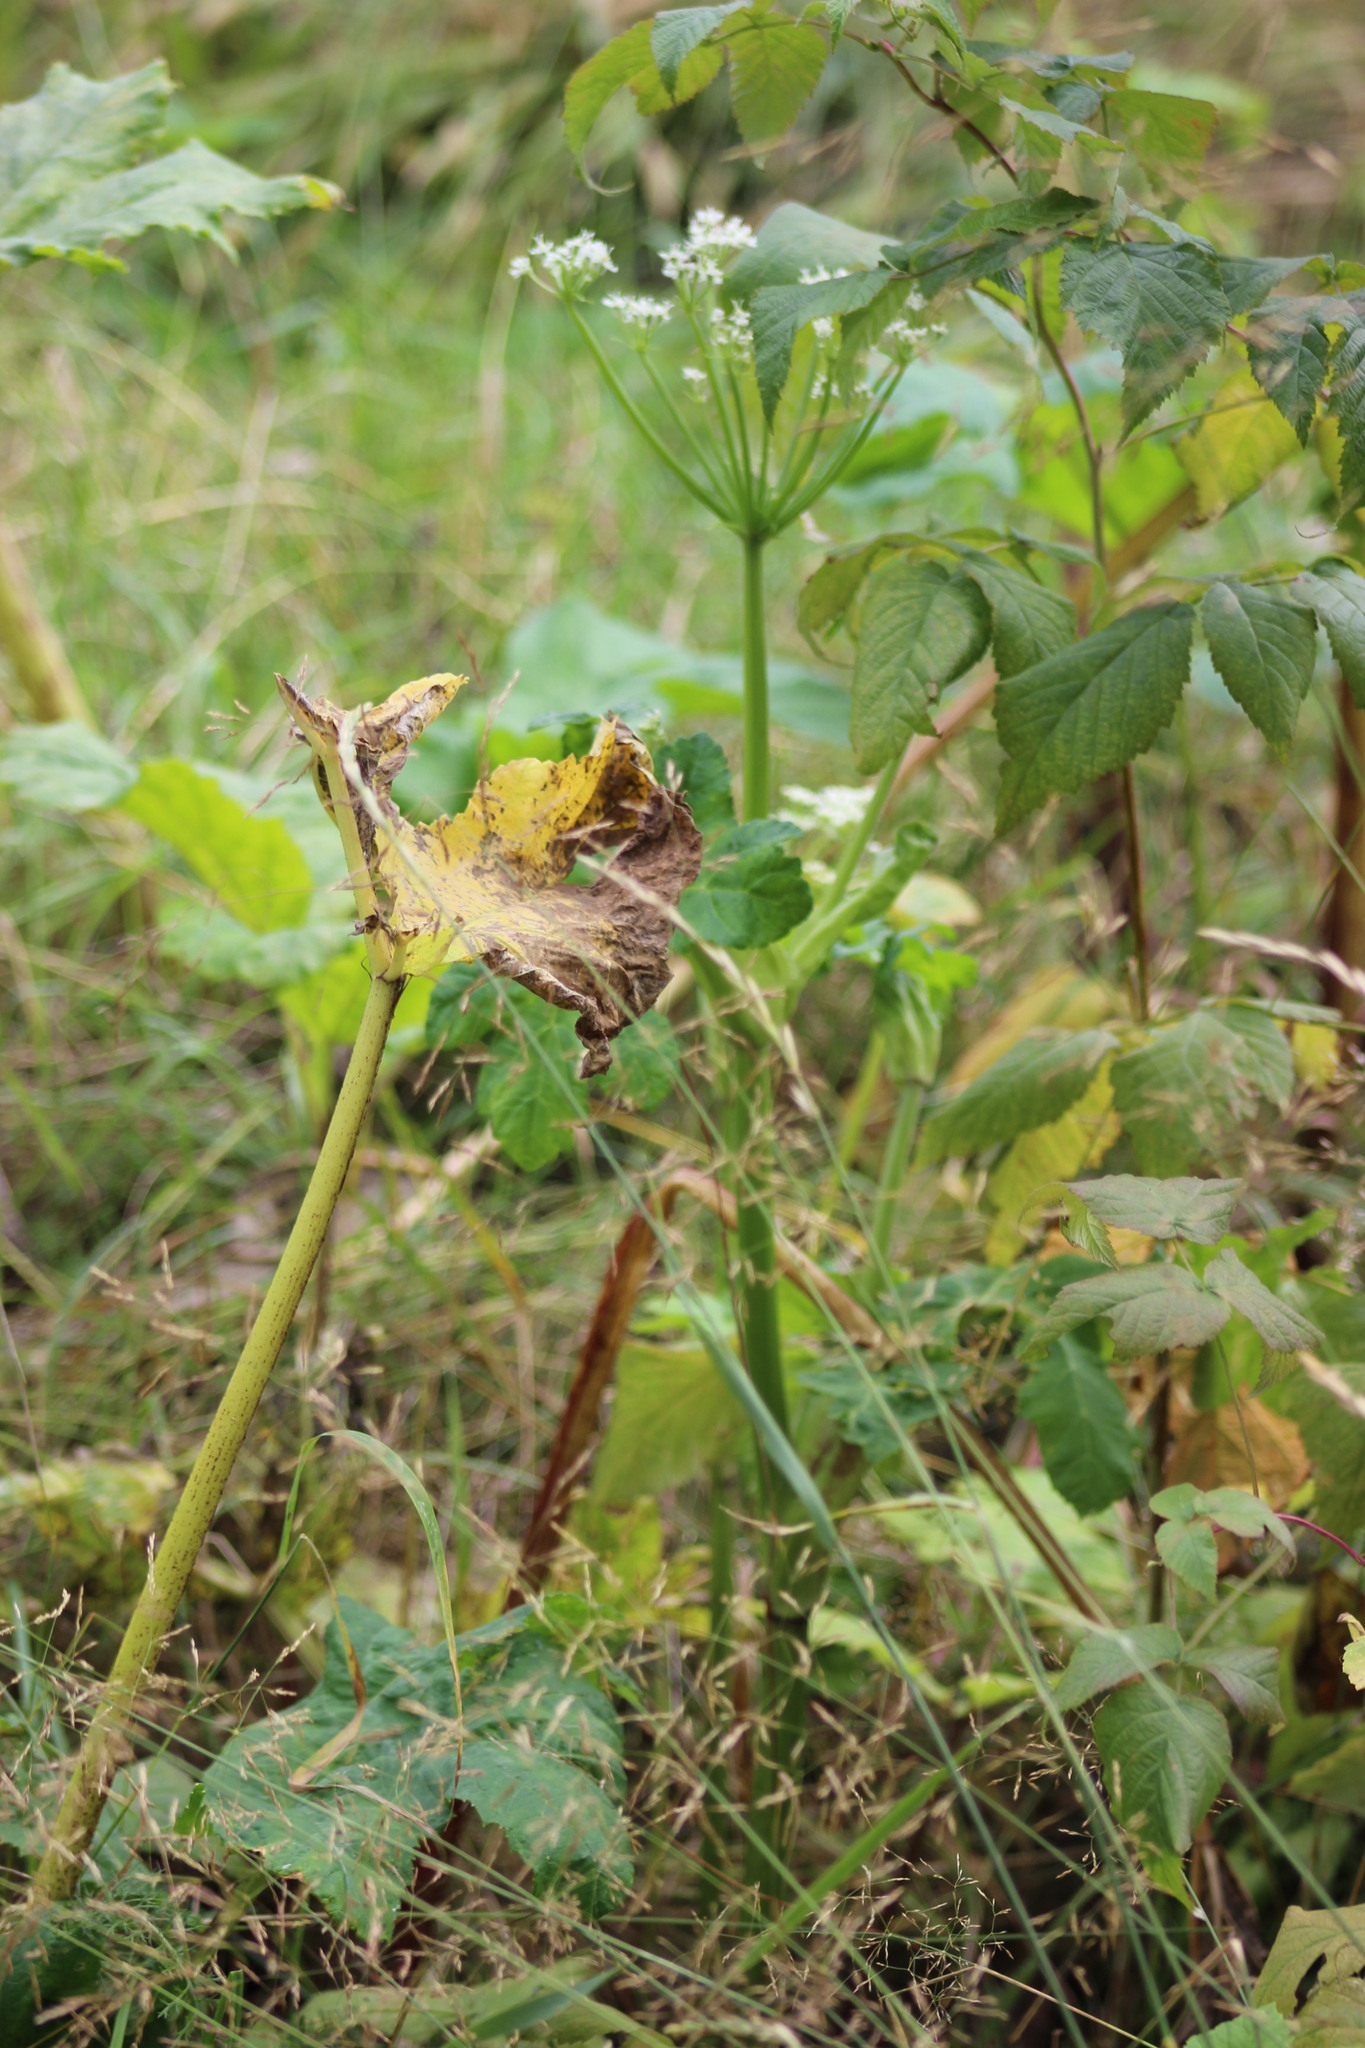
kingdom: Plantae
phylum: Tracheophyta
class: Magnoliopsida
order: Apiales
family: Apiaceae
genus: Heracleum
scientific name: Heracleum sosnowskyi
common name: Sosnowsky's hogweed
